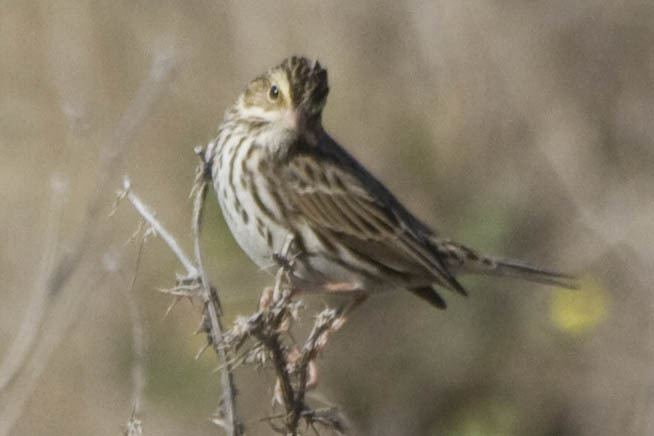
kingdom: Animalia
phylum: Chordata
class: Aves
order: Passeriformes
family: Passerellidae
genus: Passerculus
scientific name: Passerculus sandwichensis
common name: Savannah sparrow
